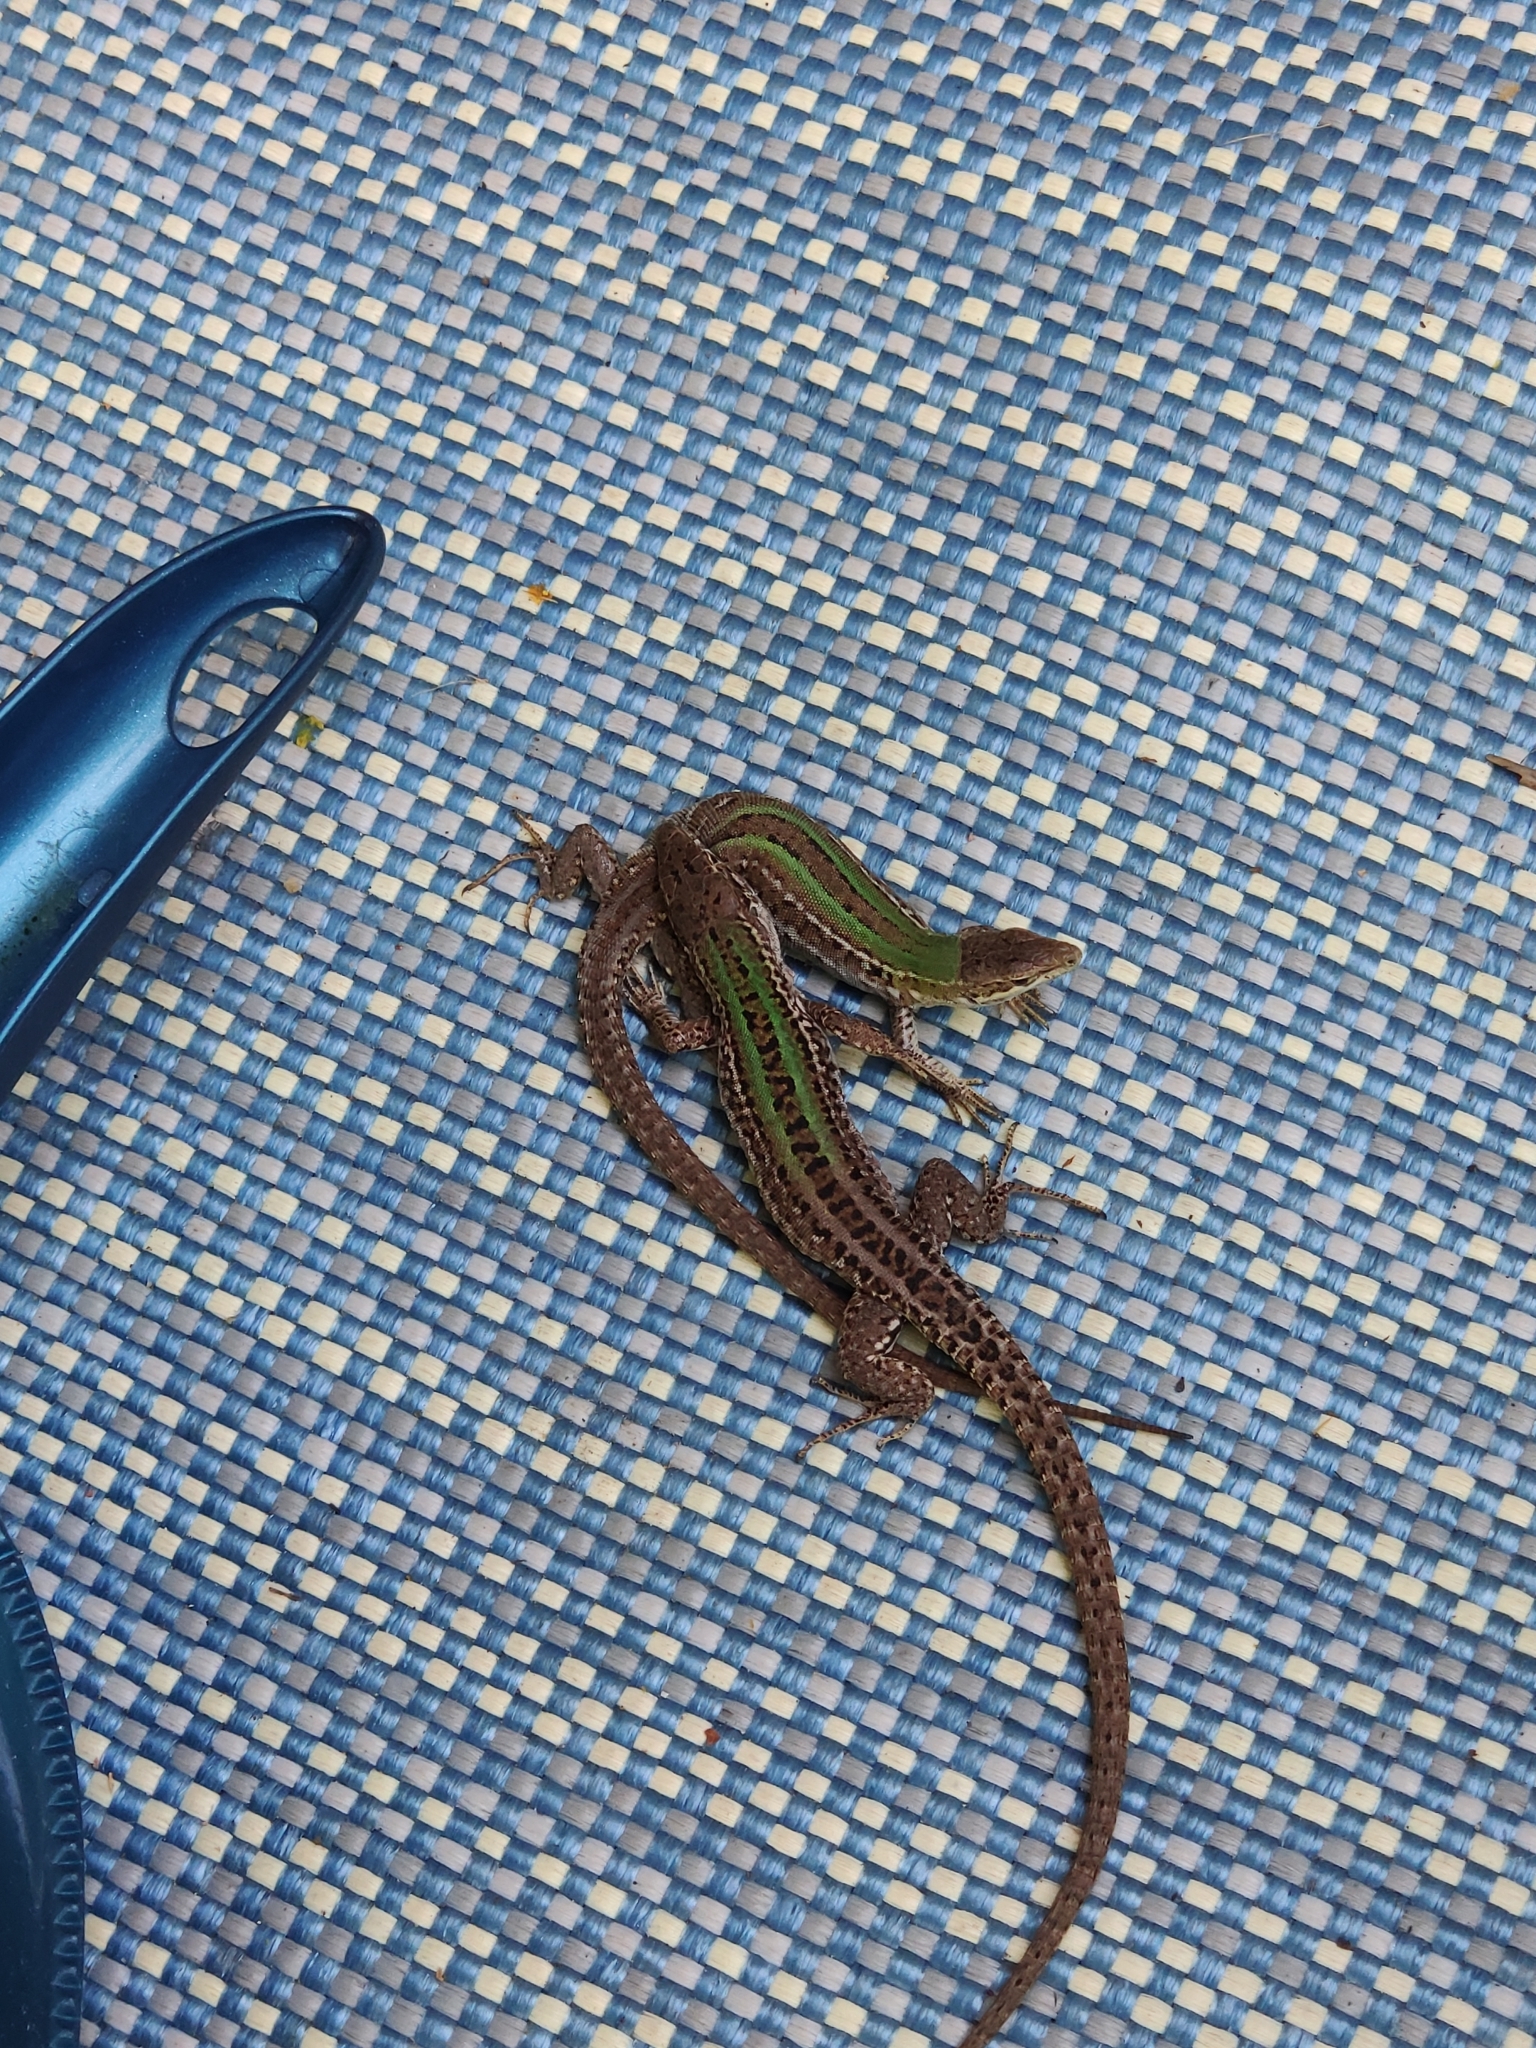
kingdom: Animalia
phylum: Chordata
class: Squamata
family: Lacertidae
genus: Podarcis
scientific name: Podarcis siculus
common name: Italian wall lizard
